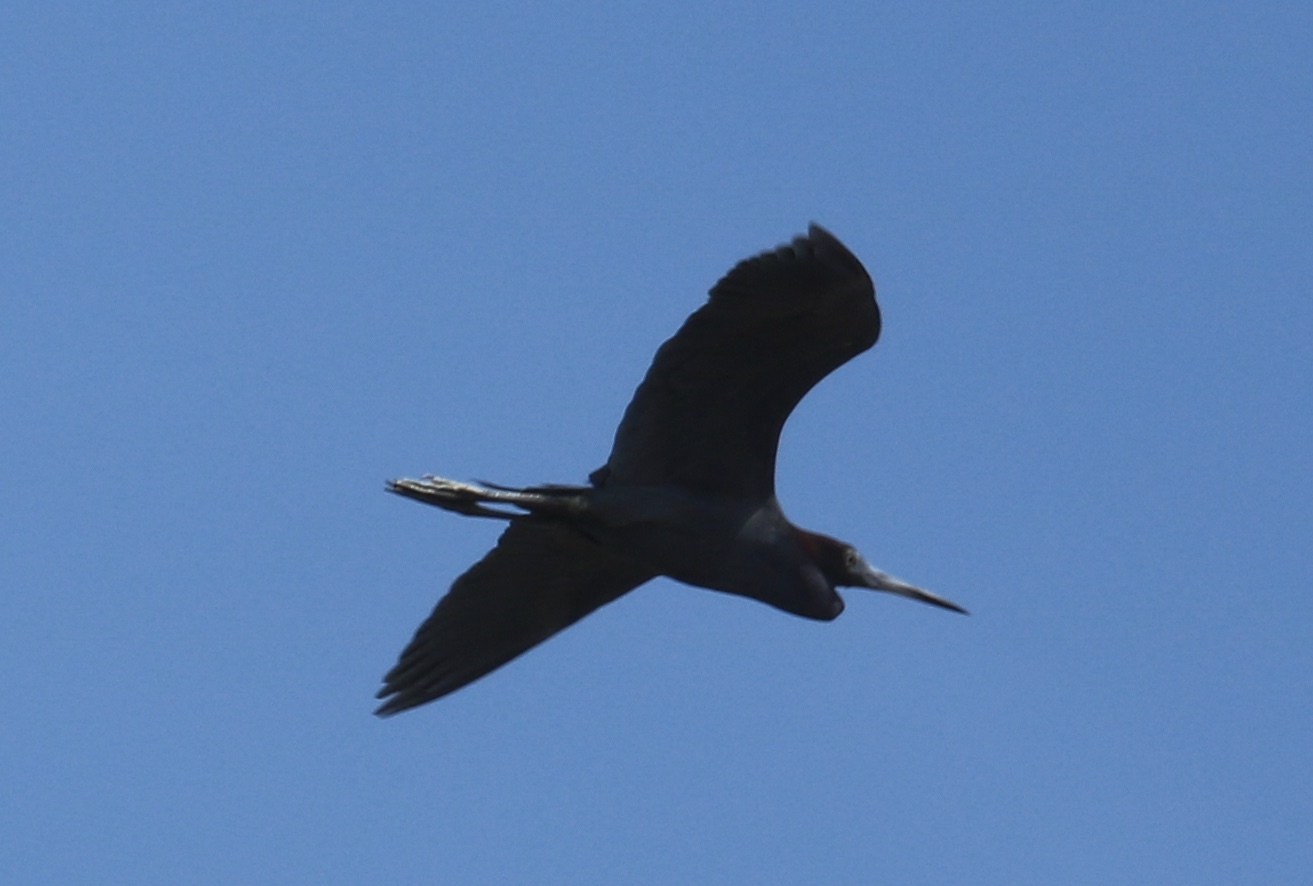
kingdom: Animalia
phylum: Chordata
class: Aves
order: Pelecaniformes
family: Ardeidae
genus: Egretta
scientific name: Egretta caerulea
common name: Little blue heron
